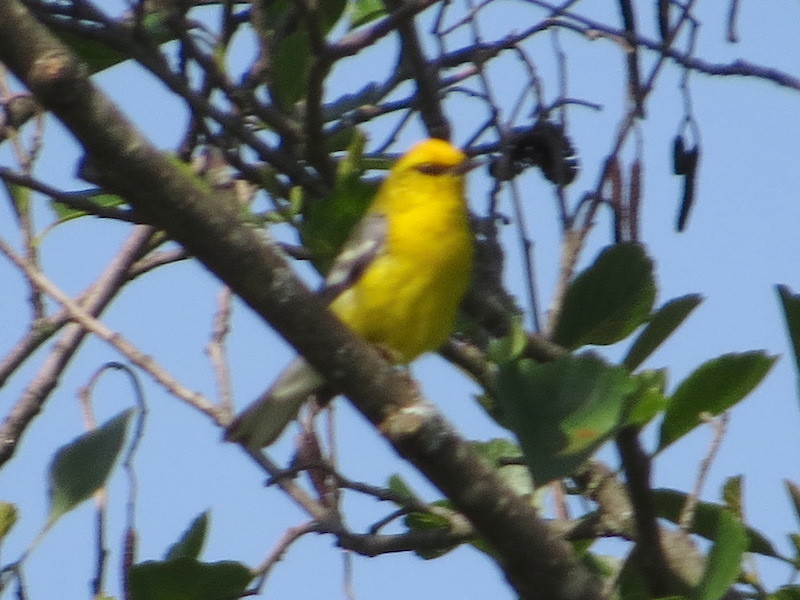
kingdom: Animalia
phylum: Chordata
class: Aves
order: Passeriformes
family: Parulidae
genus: Vermivora
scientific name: Vermivora cyanoptera
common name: Blue-winged warbler
